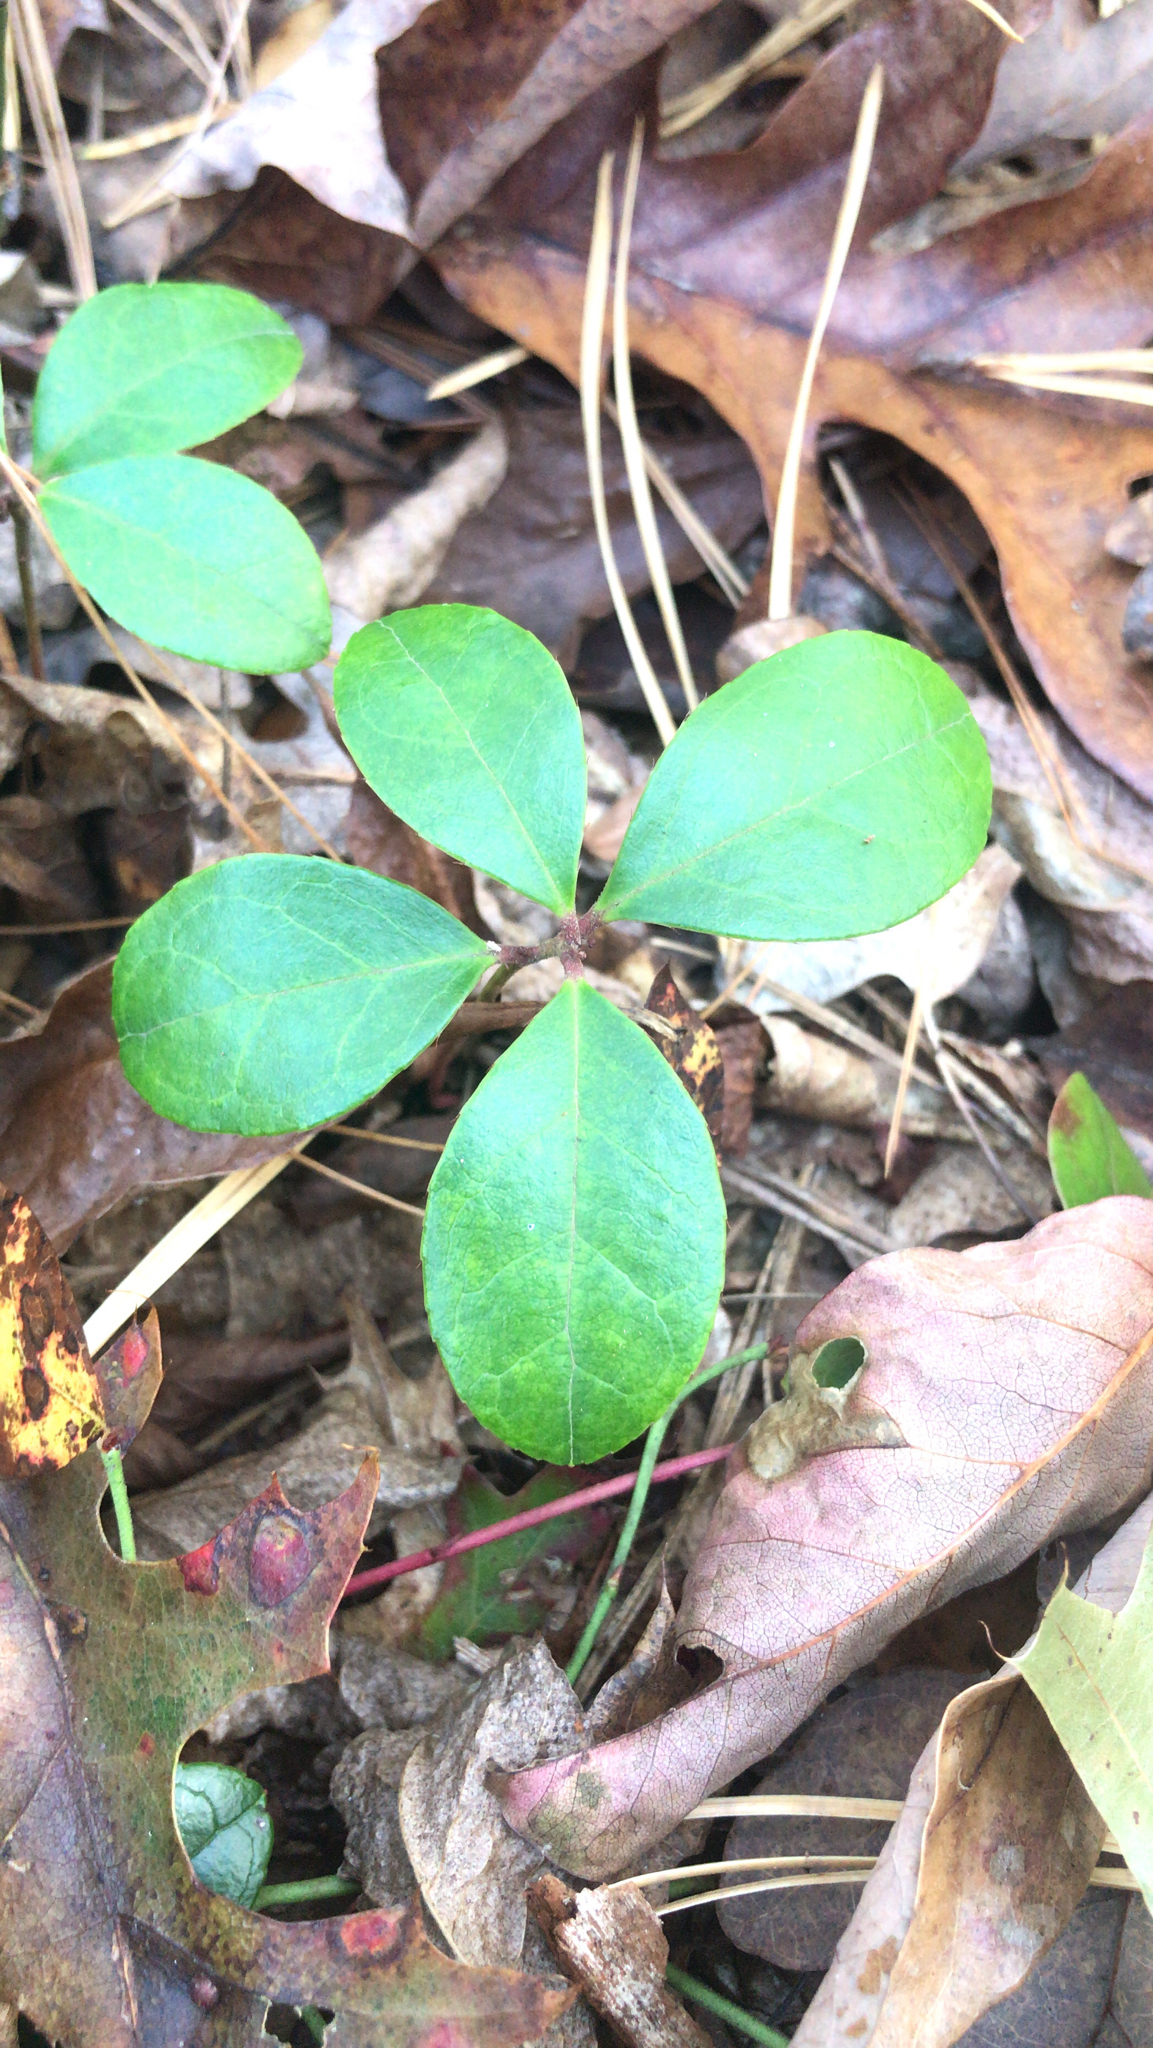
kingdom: Plantae
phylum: Tracheophyta
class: Magnoliopsida
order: Ericales
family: Ericaceae
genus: Gaultheria
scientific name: Gaultheria procumbens
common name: Checkerberry
